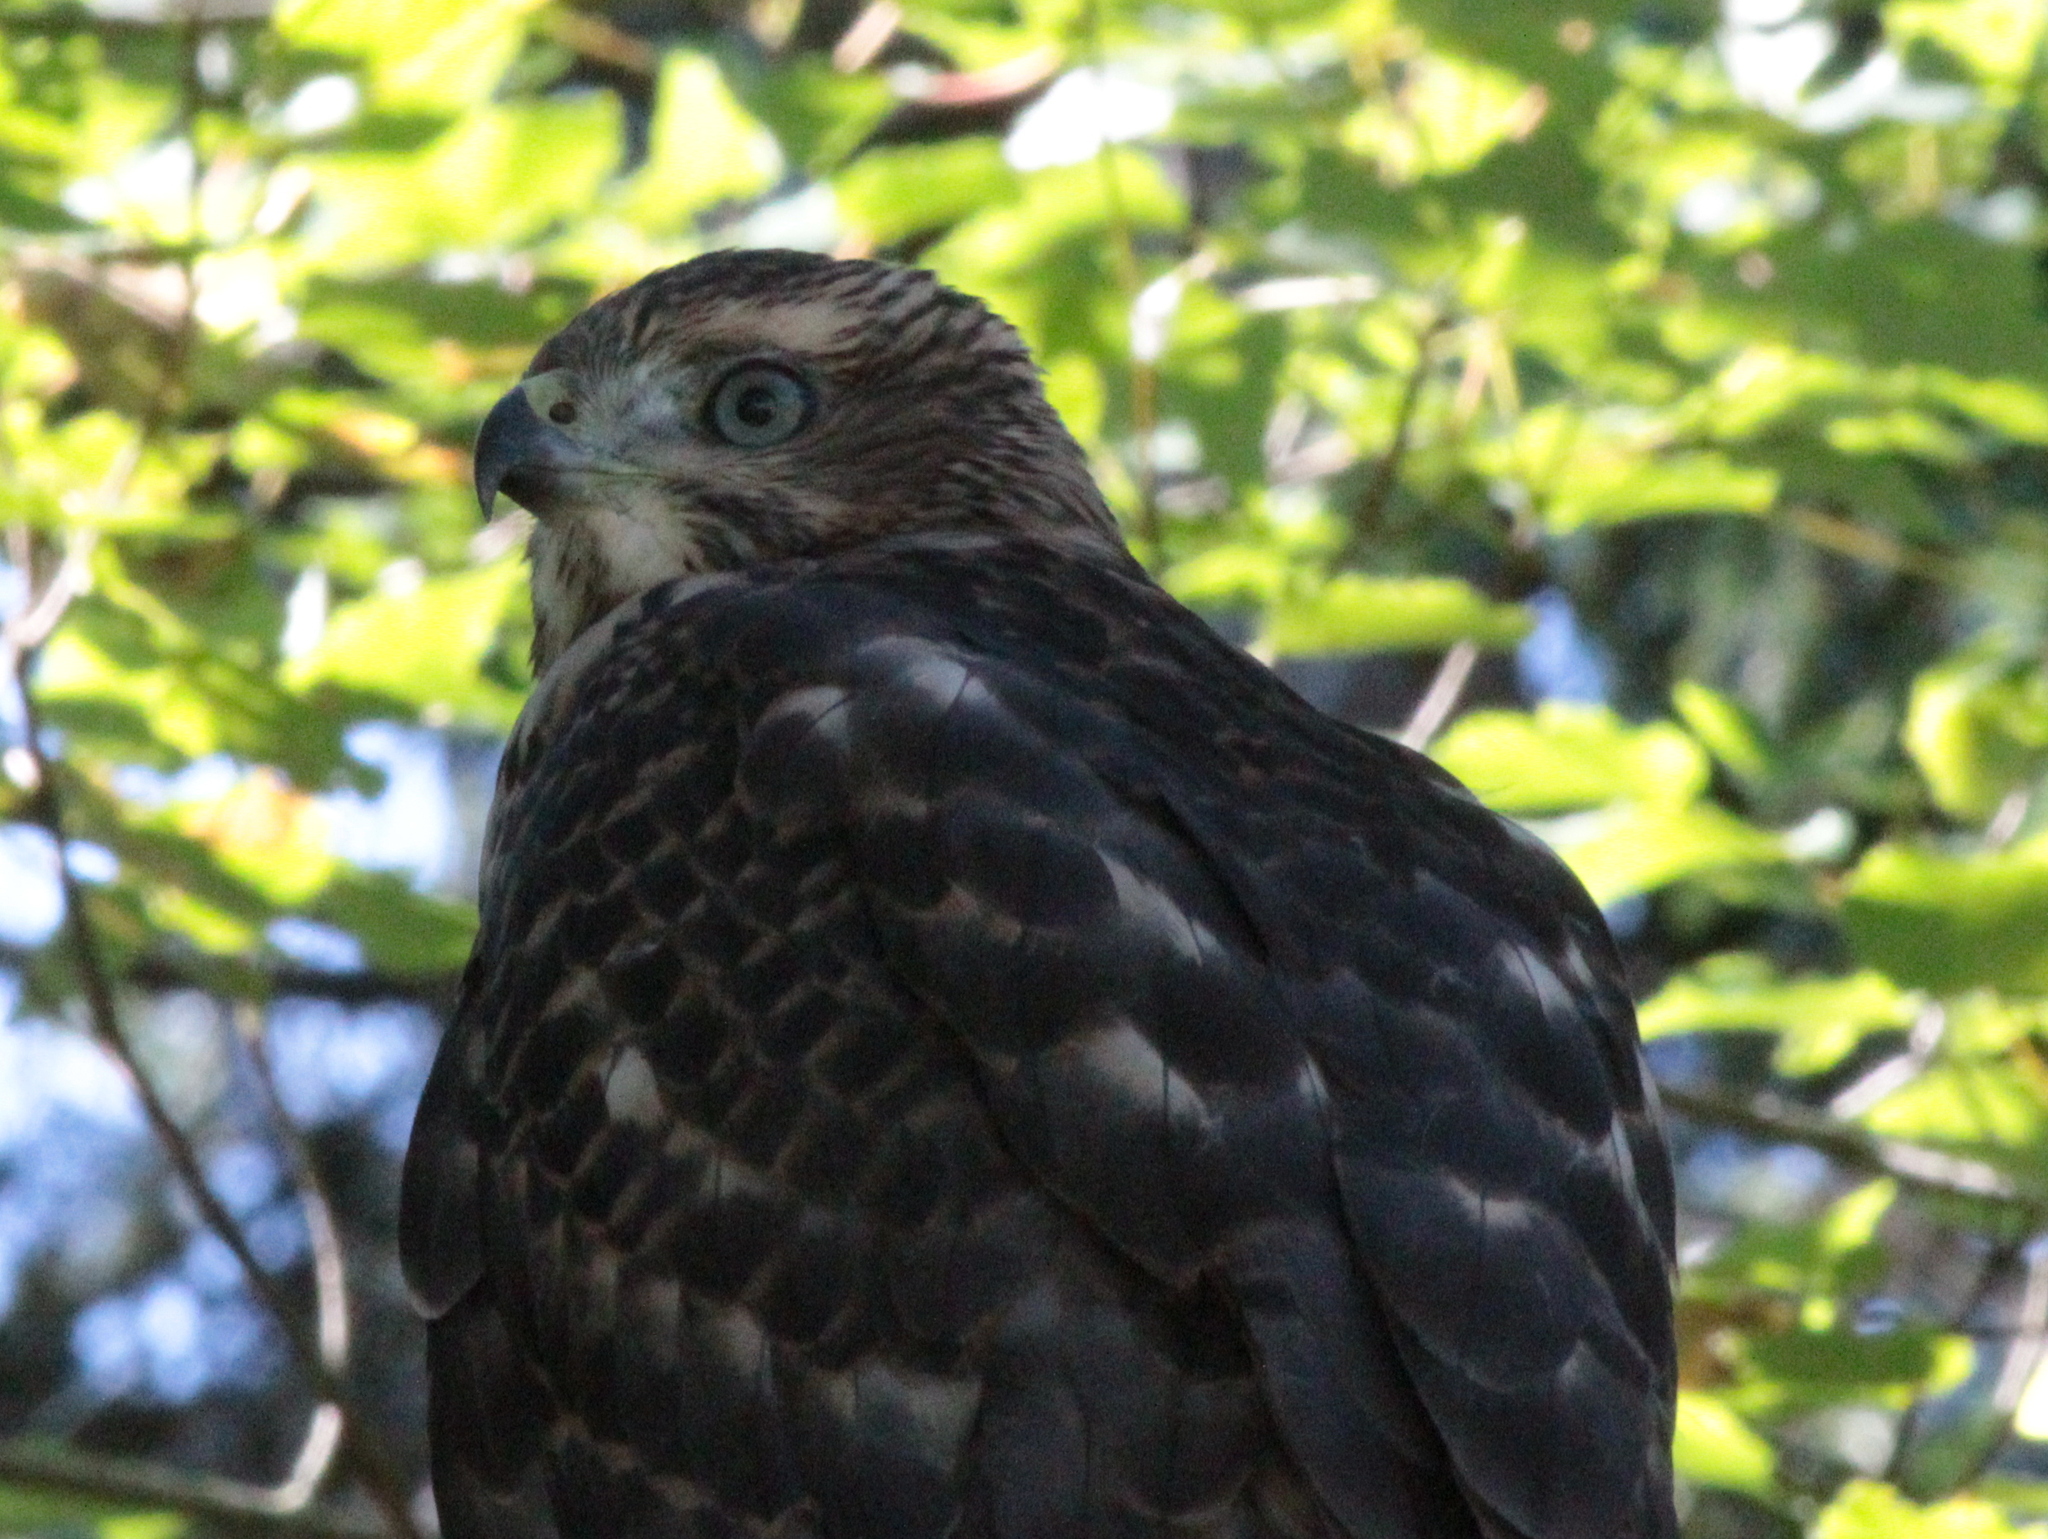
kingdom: Animalia
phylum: Chordata
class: Aves
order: Accipitriformes
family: Accipitridae
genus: Accipiter
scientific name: Accipiter cooperii
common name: Cooper's hawk
